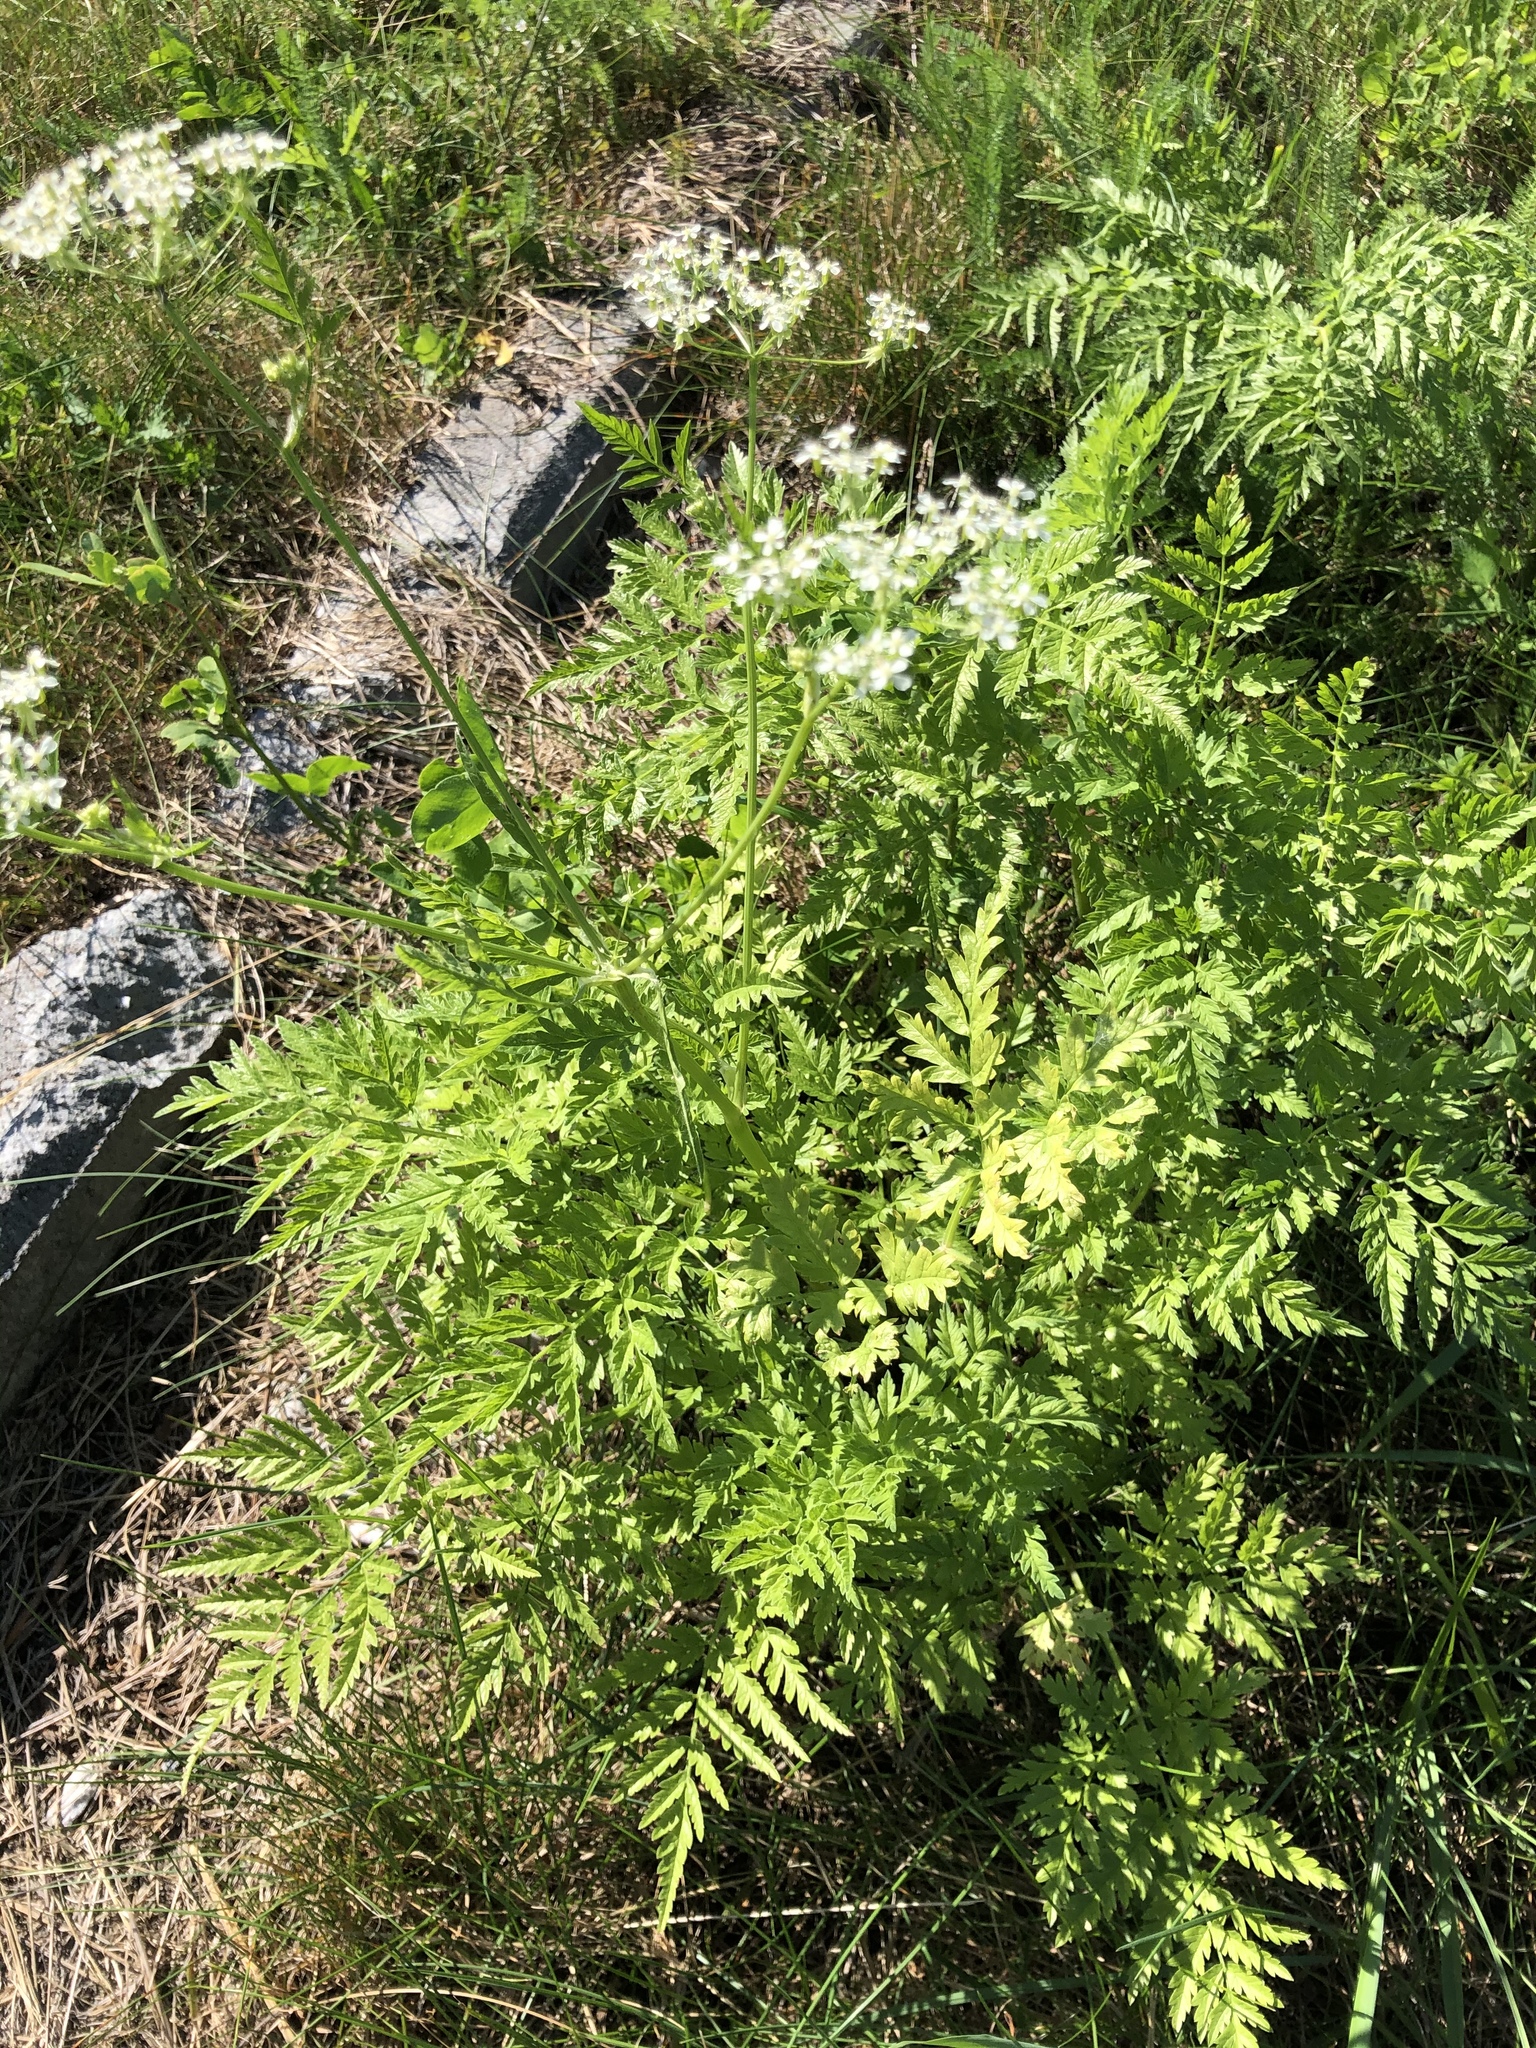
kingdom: Plantae
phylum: Tracheophyta
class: Magnoliopsida
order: Apiales
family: Apiaceae
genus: Anthriscus
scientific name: Anthriscus sylvestris
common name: Cow parsley
